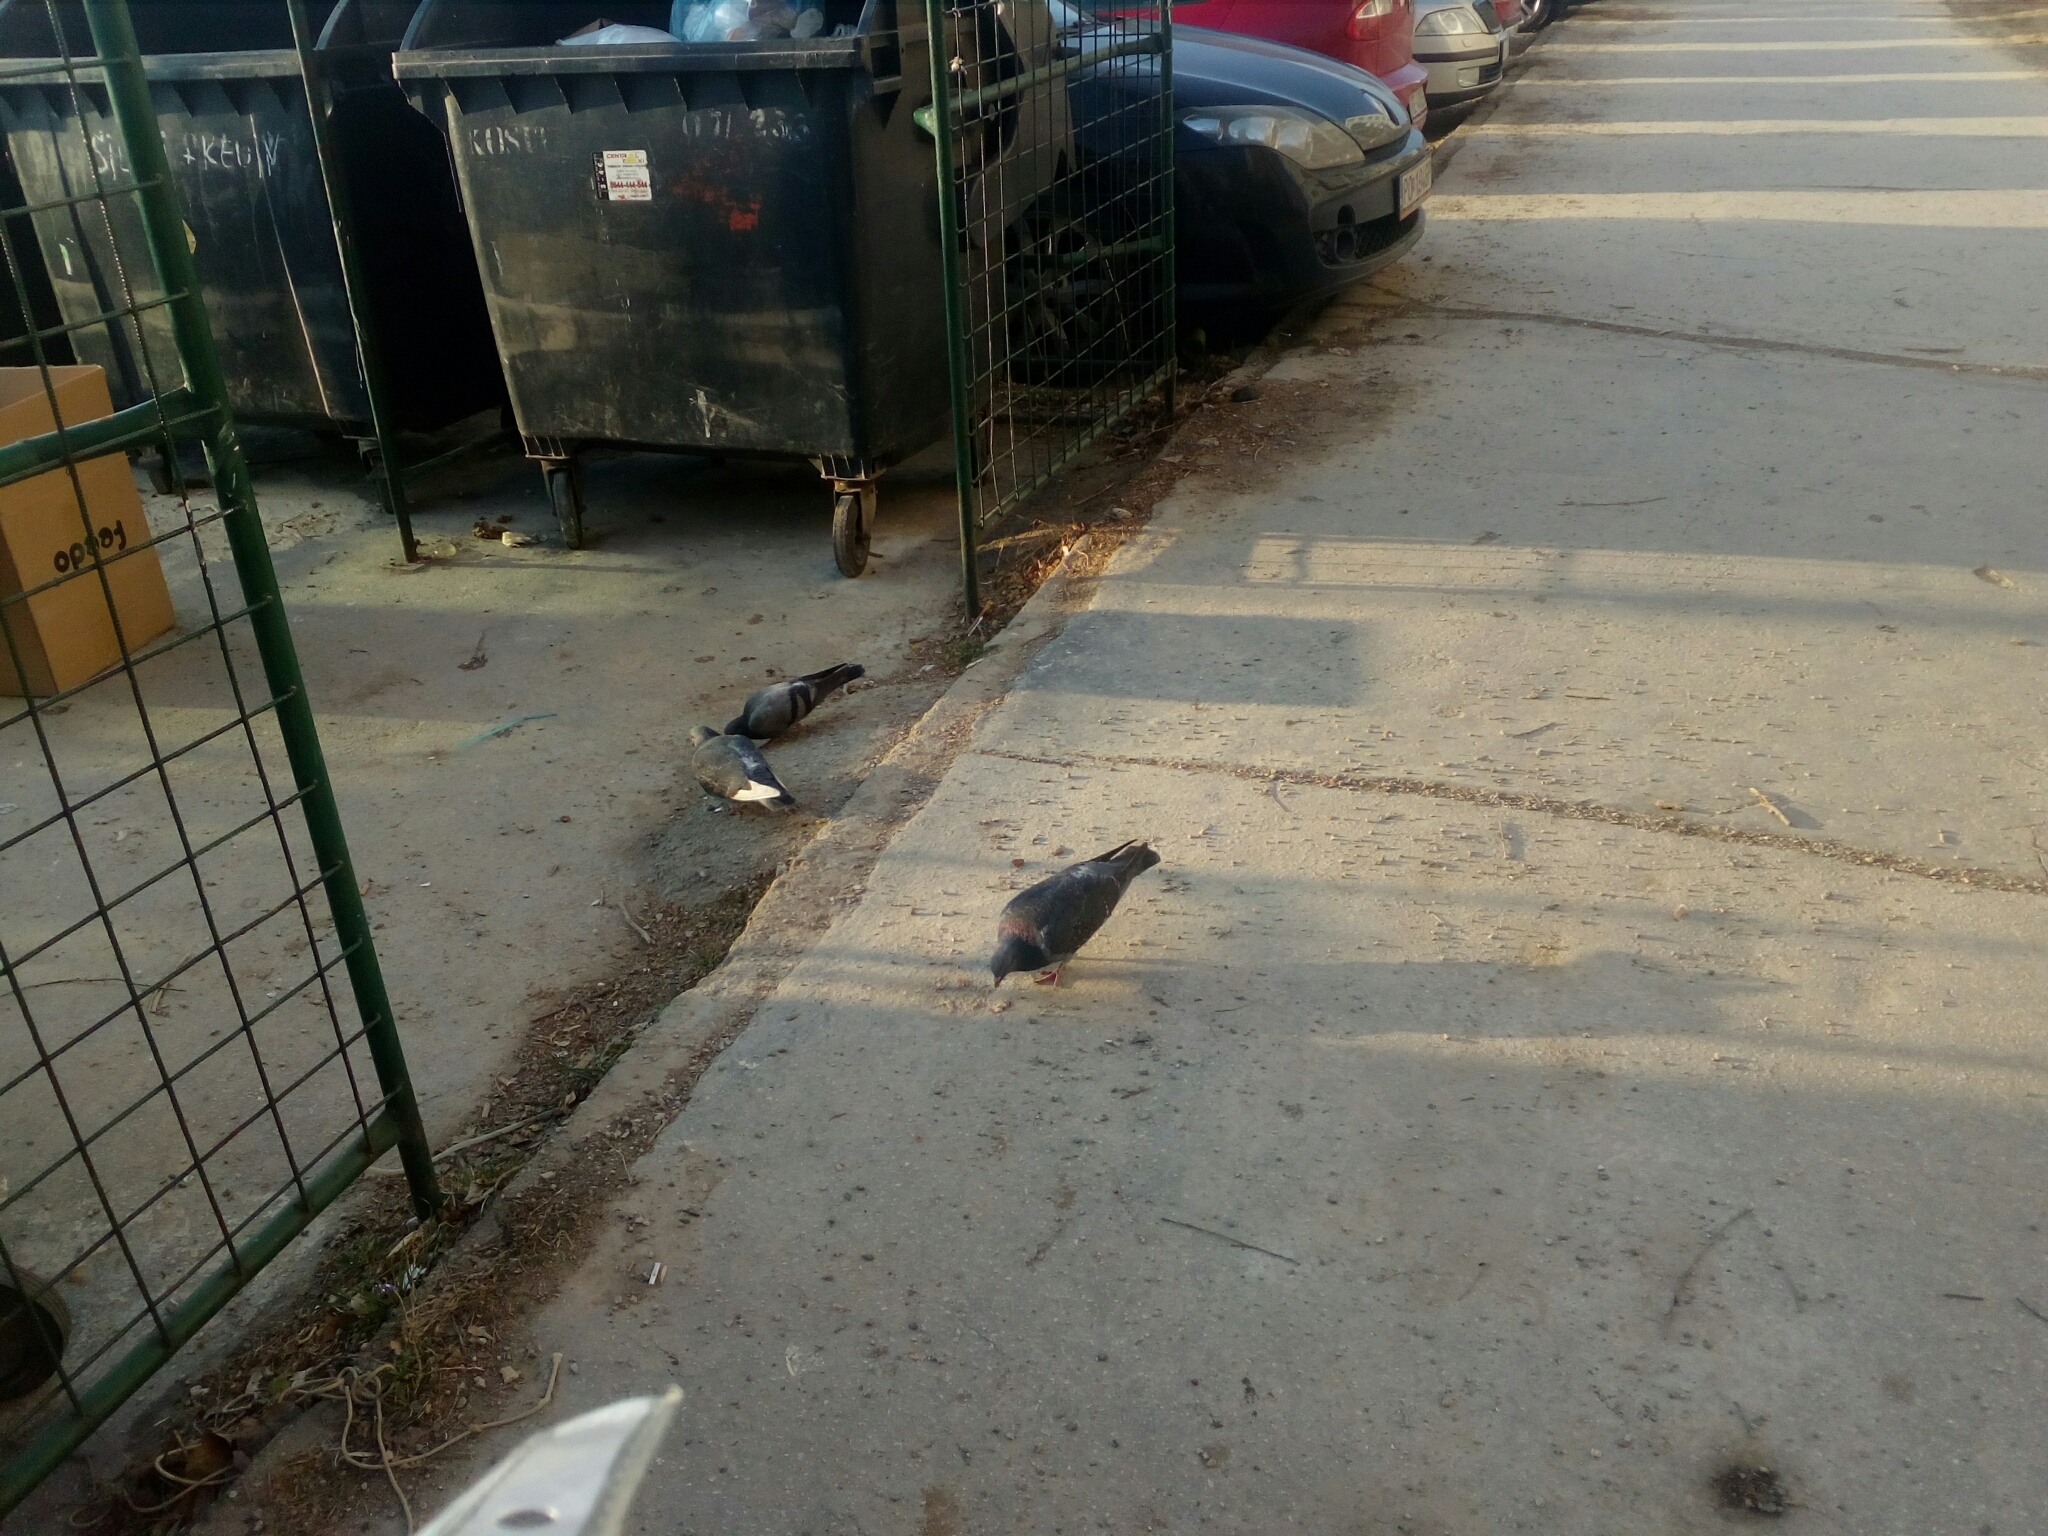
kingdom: Animalia
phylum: Chordata
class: Aves
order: Columbiformes
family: Columbidae
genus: Columba
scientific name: Columba livia
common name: Rock pigeon
